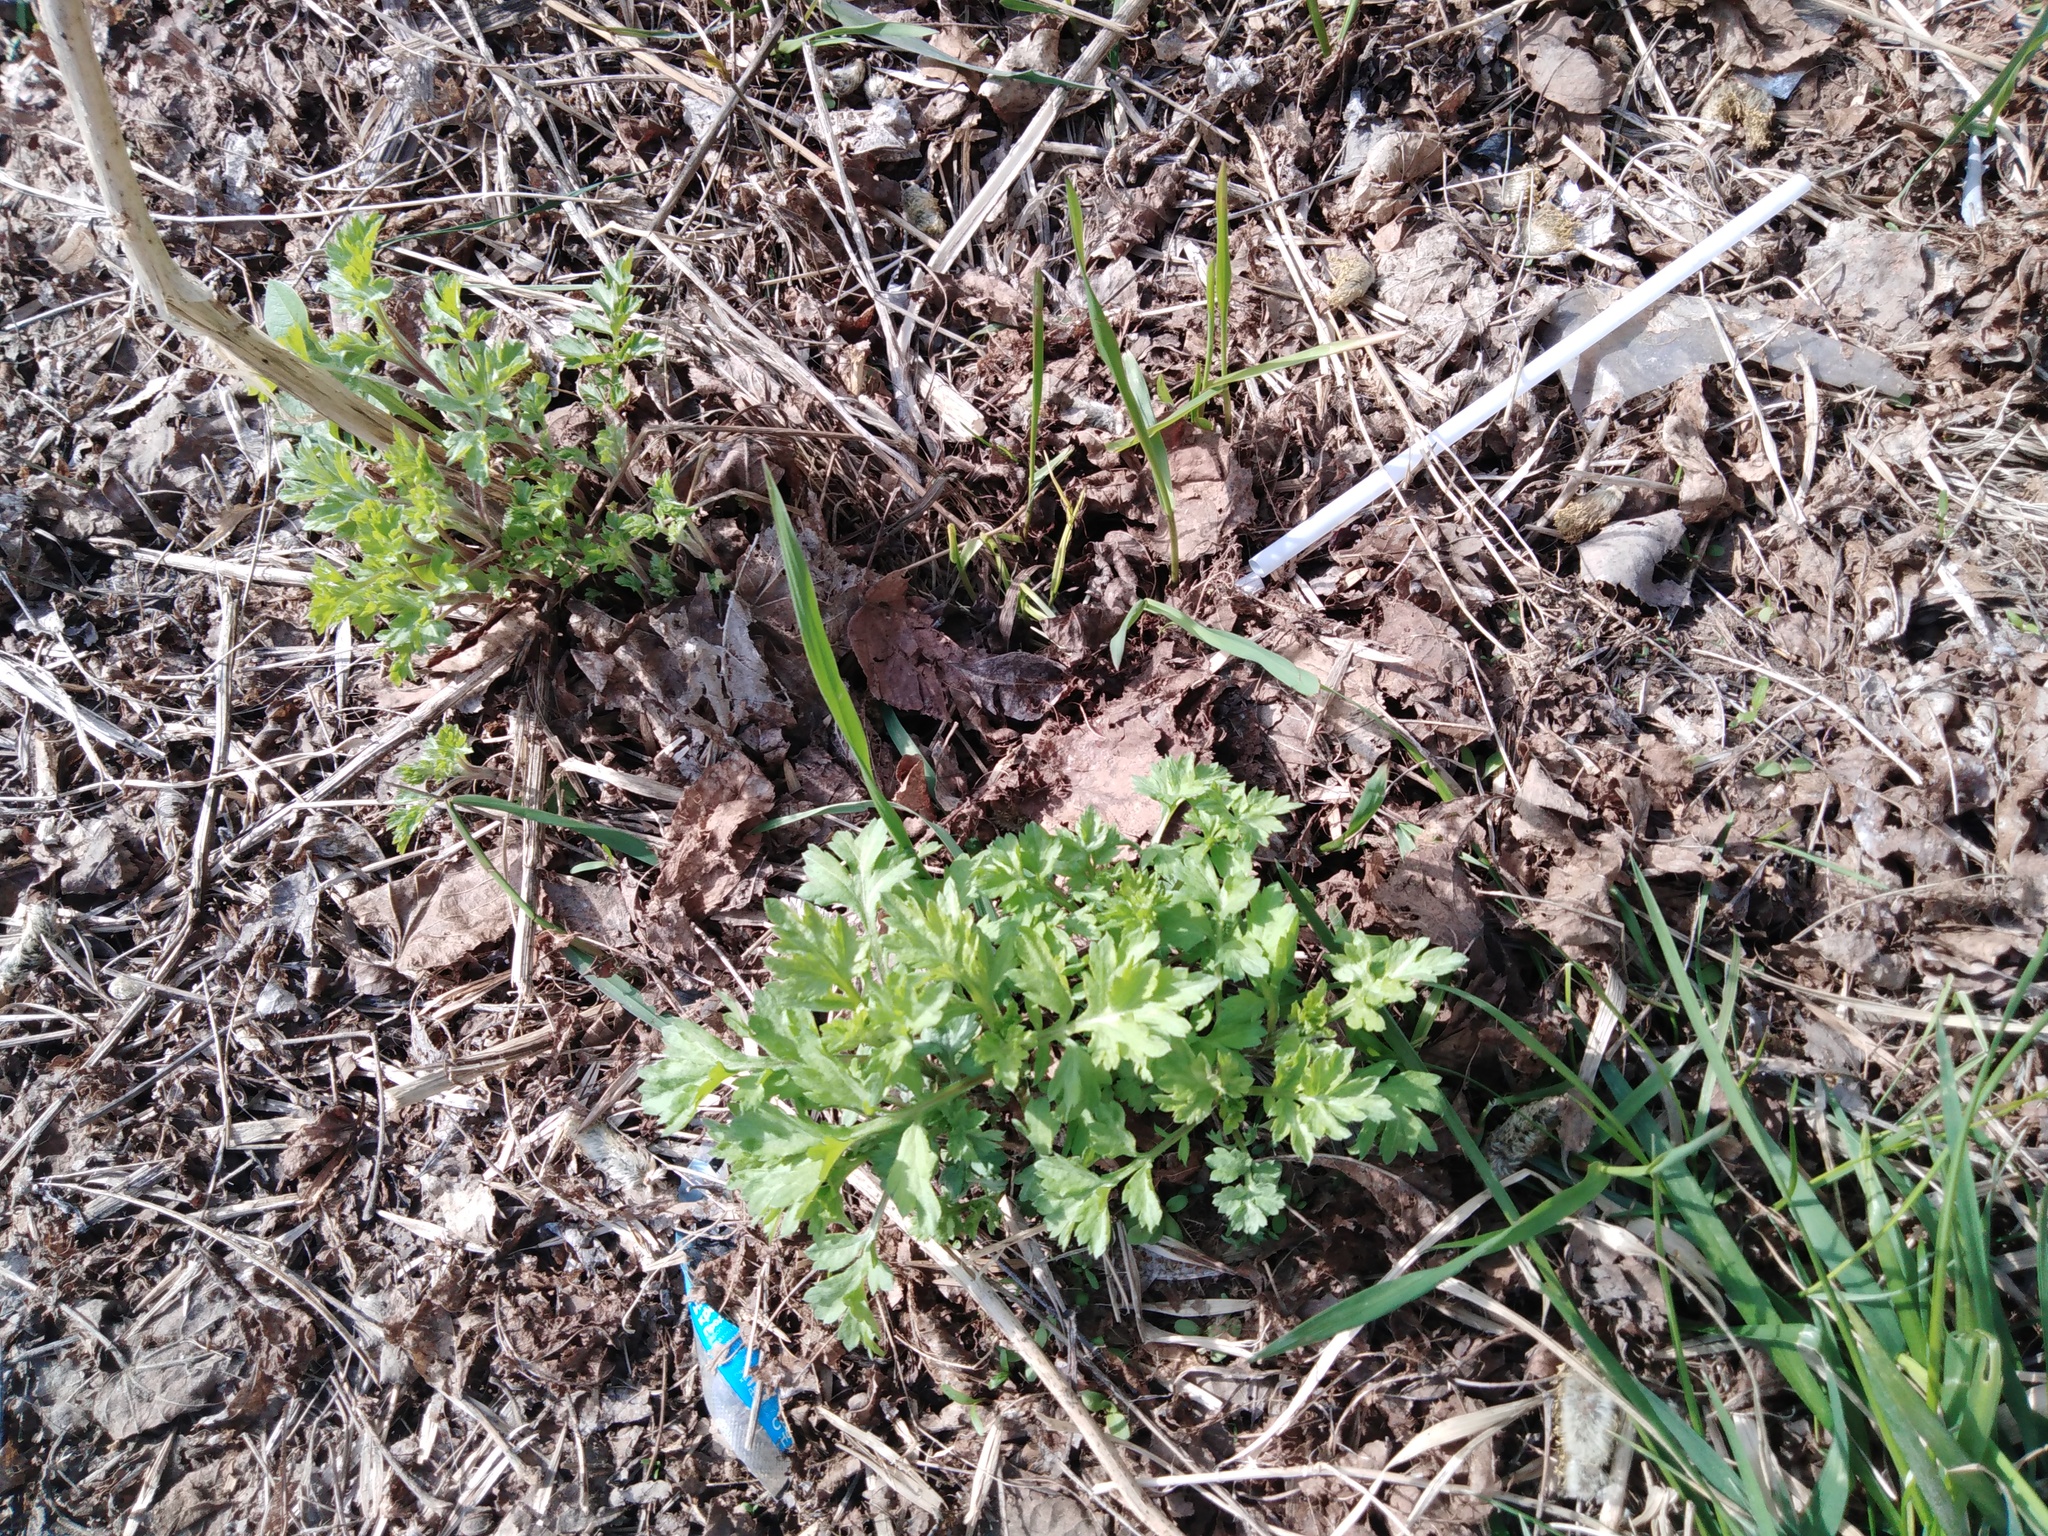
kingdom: Plantae
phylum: Tracheophyta
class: Magnoliopsida
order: Asterales
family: Asteraceae
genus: Artemisia
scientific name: Artemisia vulgaris
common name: Mugwort
